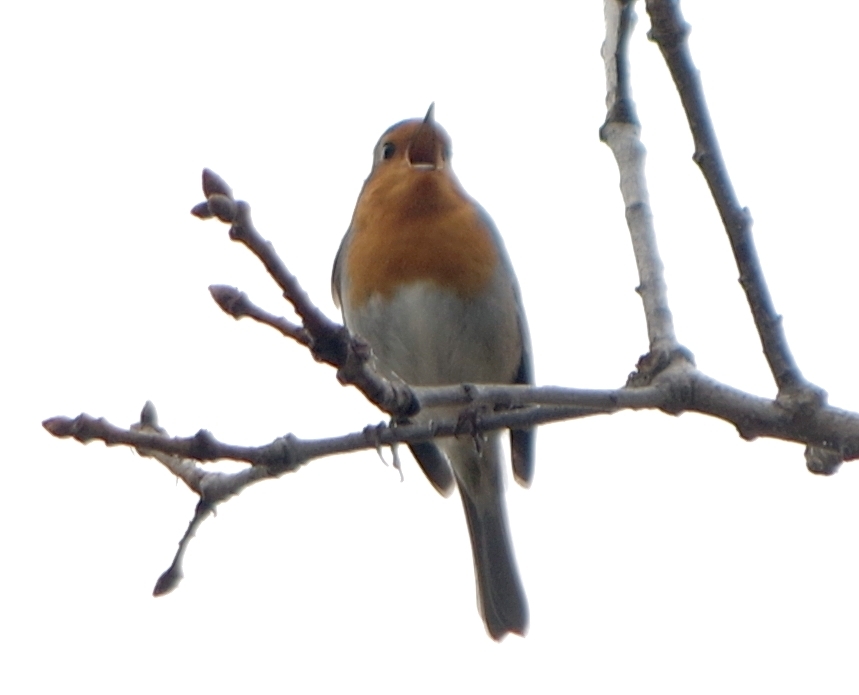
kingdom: Animalia
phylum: Chordata
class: Aves
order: Passeriformes
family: Muscicapidae
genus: Erithacus
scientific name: Erithacus rubecula
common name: European robin
